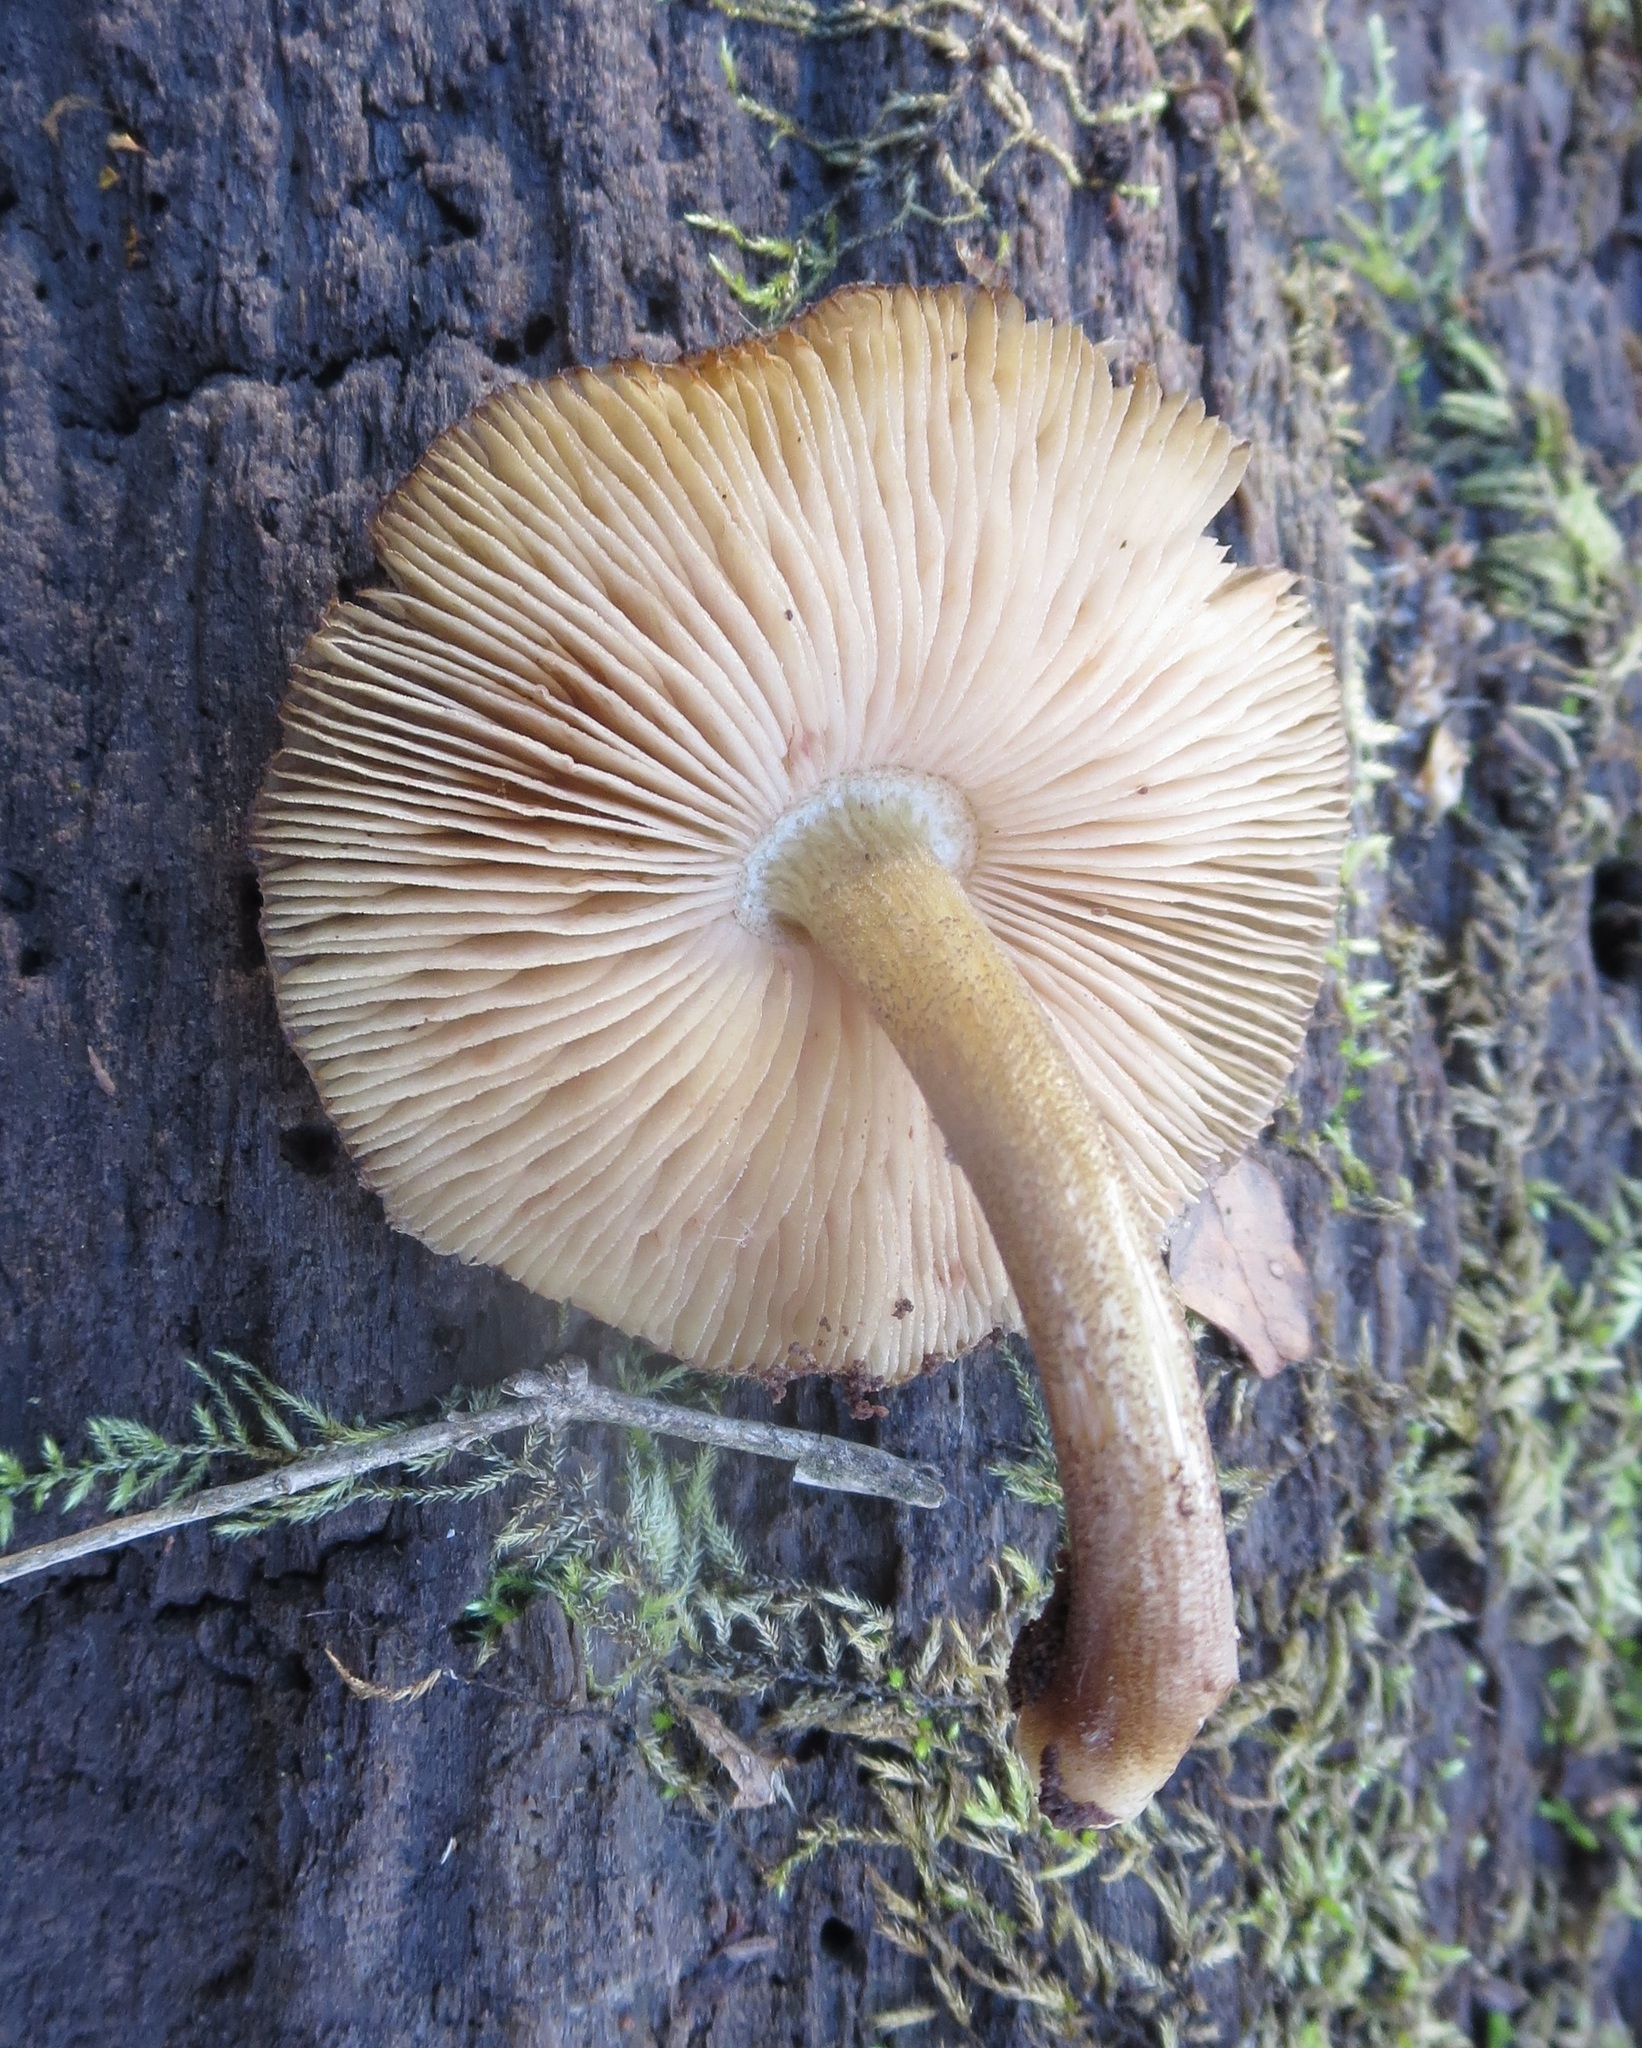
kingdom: Fungi
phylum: Basidiomycota
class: Agaricomycetes
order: Agaricales
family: Pluteaceae
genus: Pluteus
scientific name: Pluteus granularis
